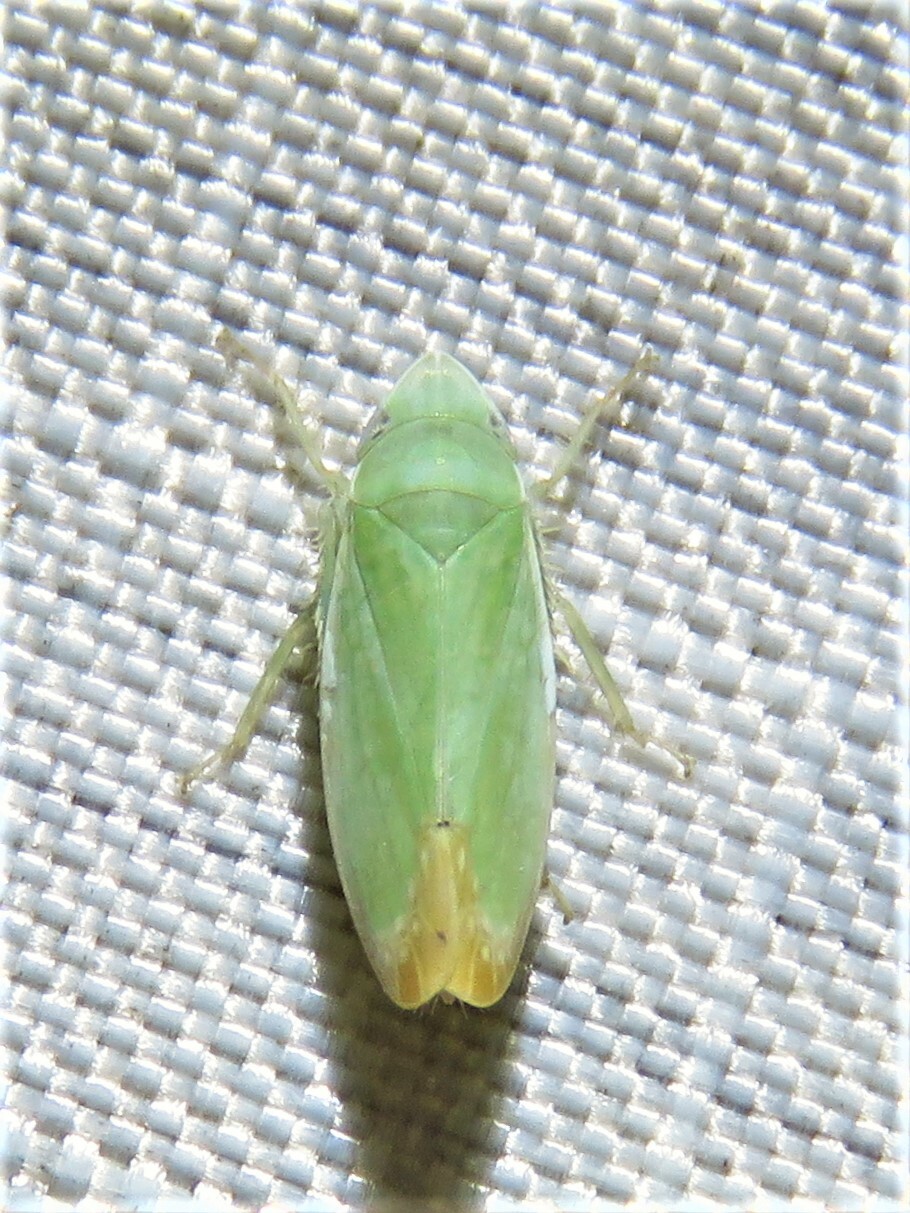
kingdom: Animalia
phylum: Arthropoda
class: Insecta
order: Hemiptera
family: Cicadellidae
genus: Memnonia
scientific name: Memnonia flavida
